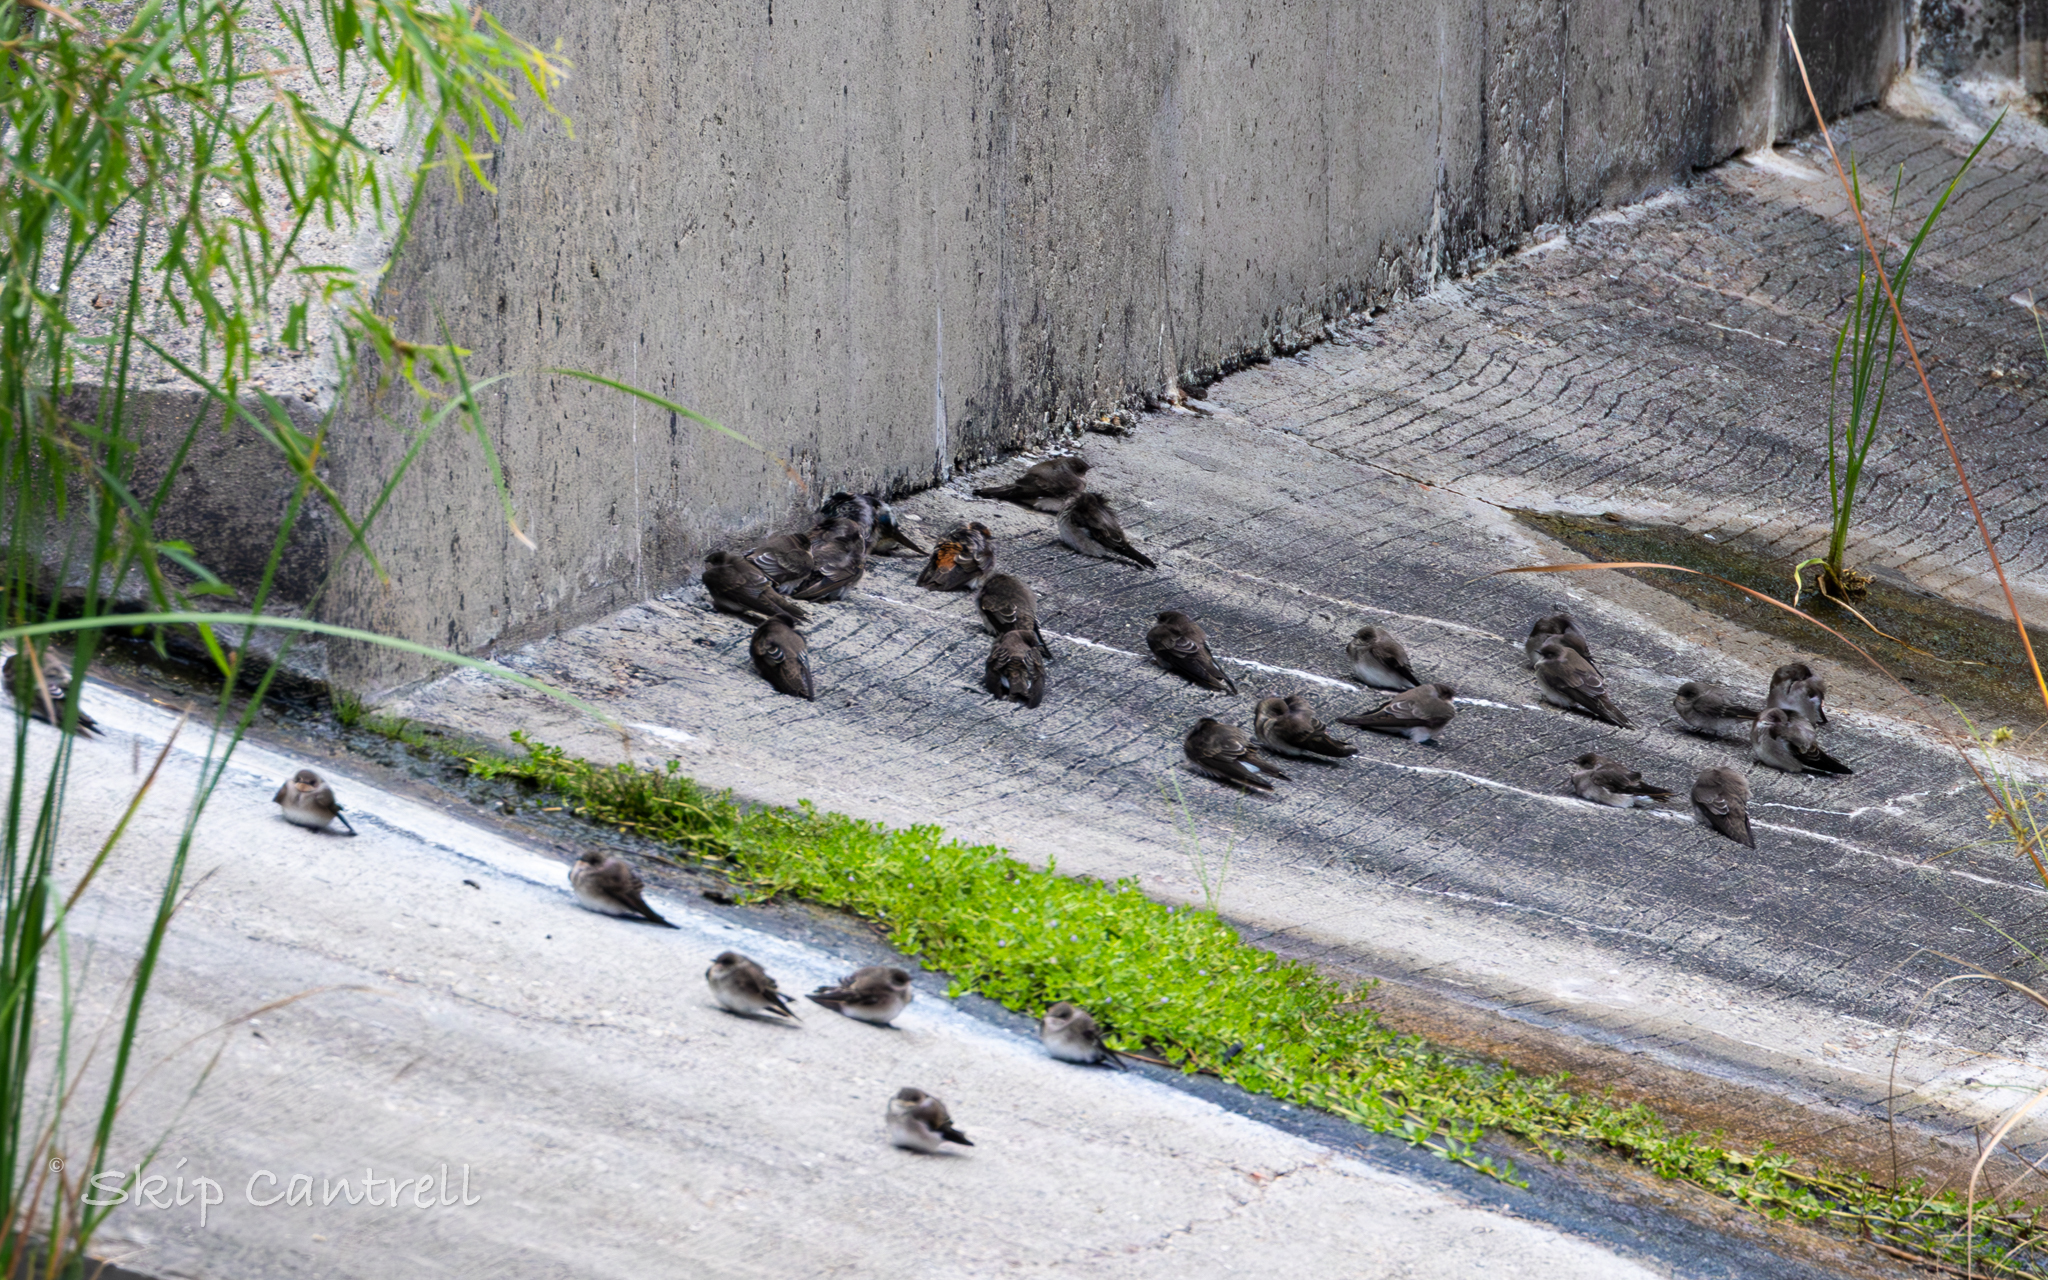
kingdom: Animalia
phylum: Chordata
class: Aves
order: Passeriformes
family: Hirundinidae
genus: Stelgidopteryx
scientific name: Stelgidopteryx serripennis
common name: Northern rough-winged swallow
